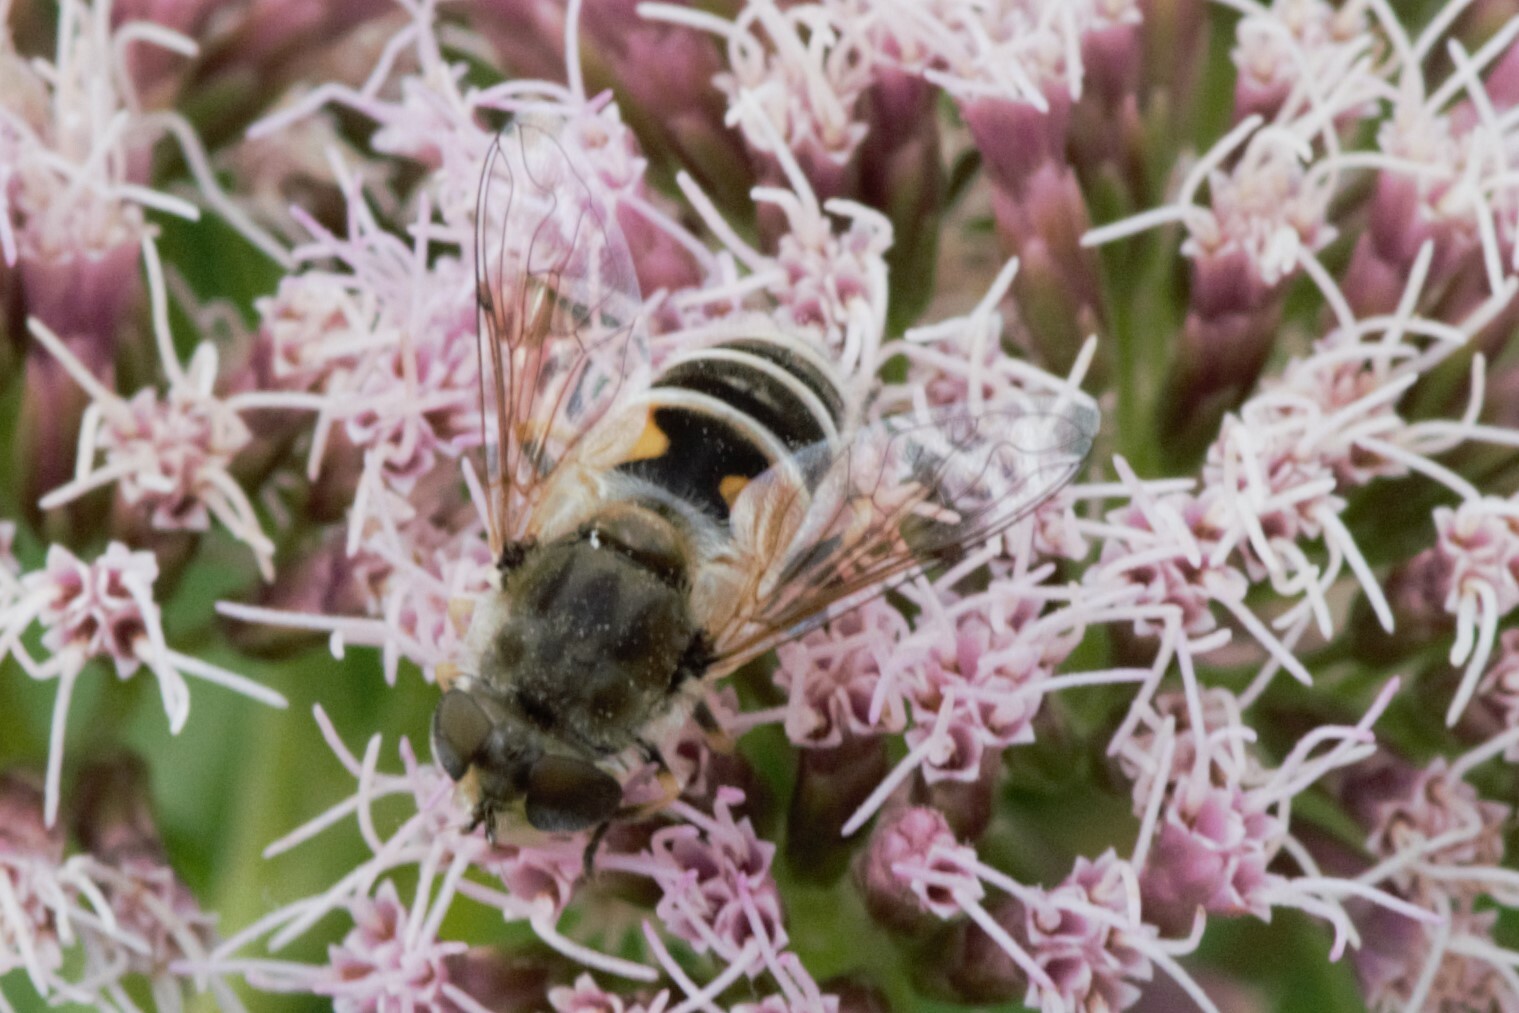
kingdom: Animalia
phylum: Arthropoda
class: Insecta
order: Diptera
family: Syrphidae
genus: Eristalis
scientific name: Eristalis arbustorum
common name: Hover fly
